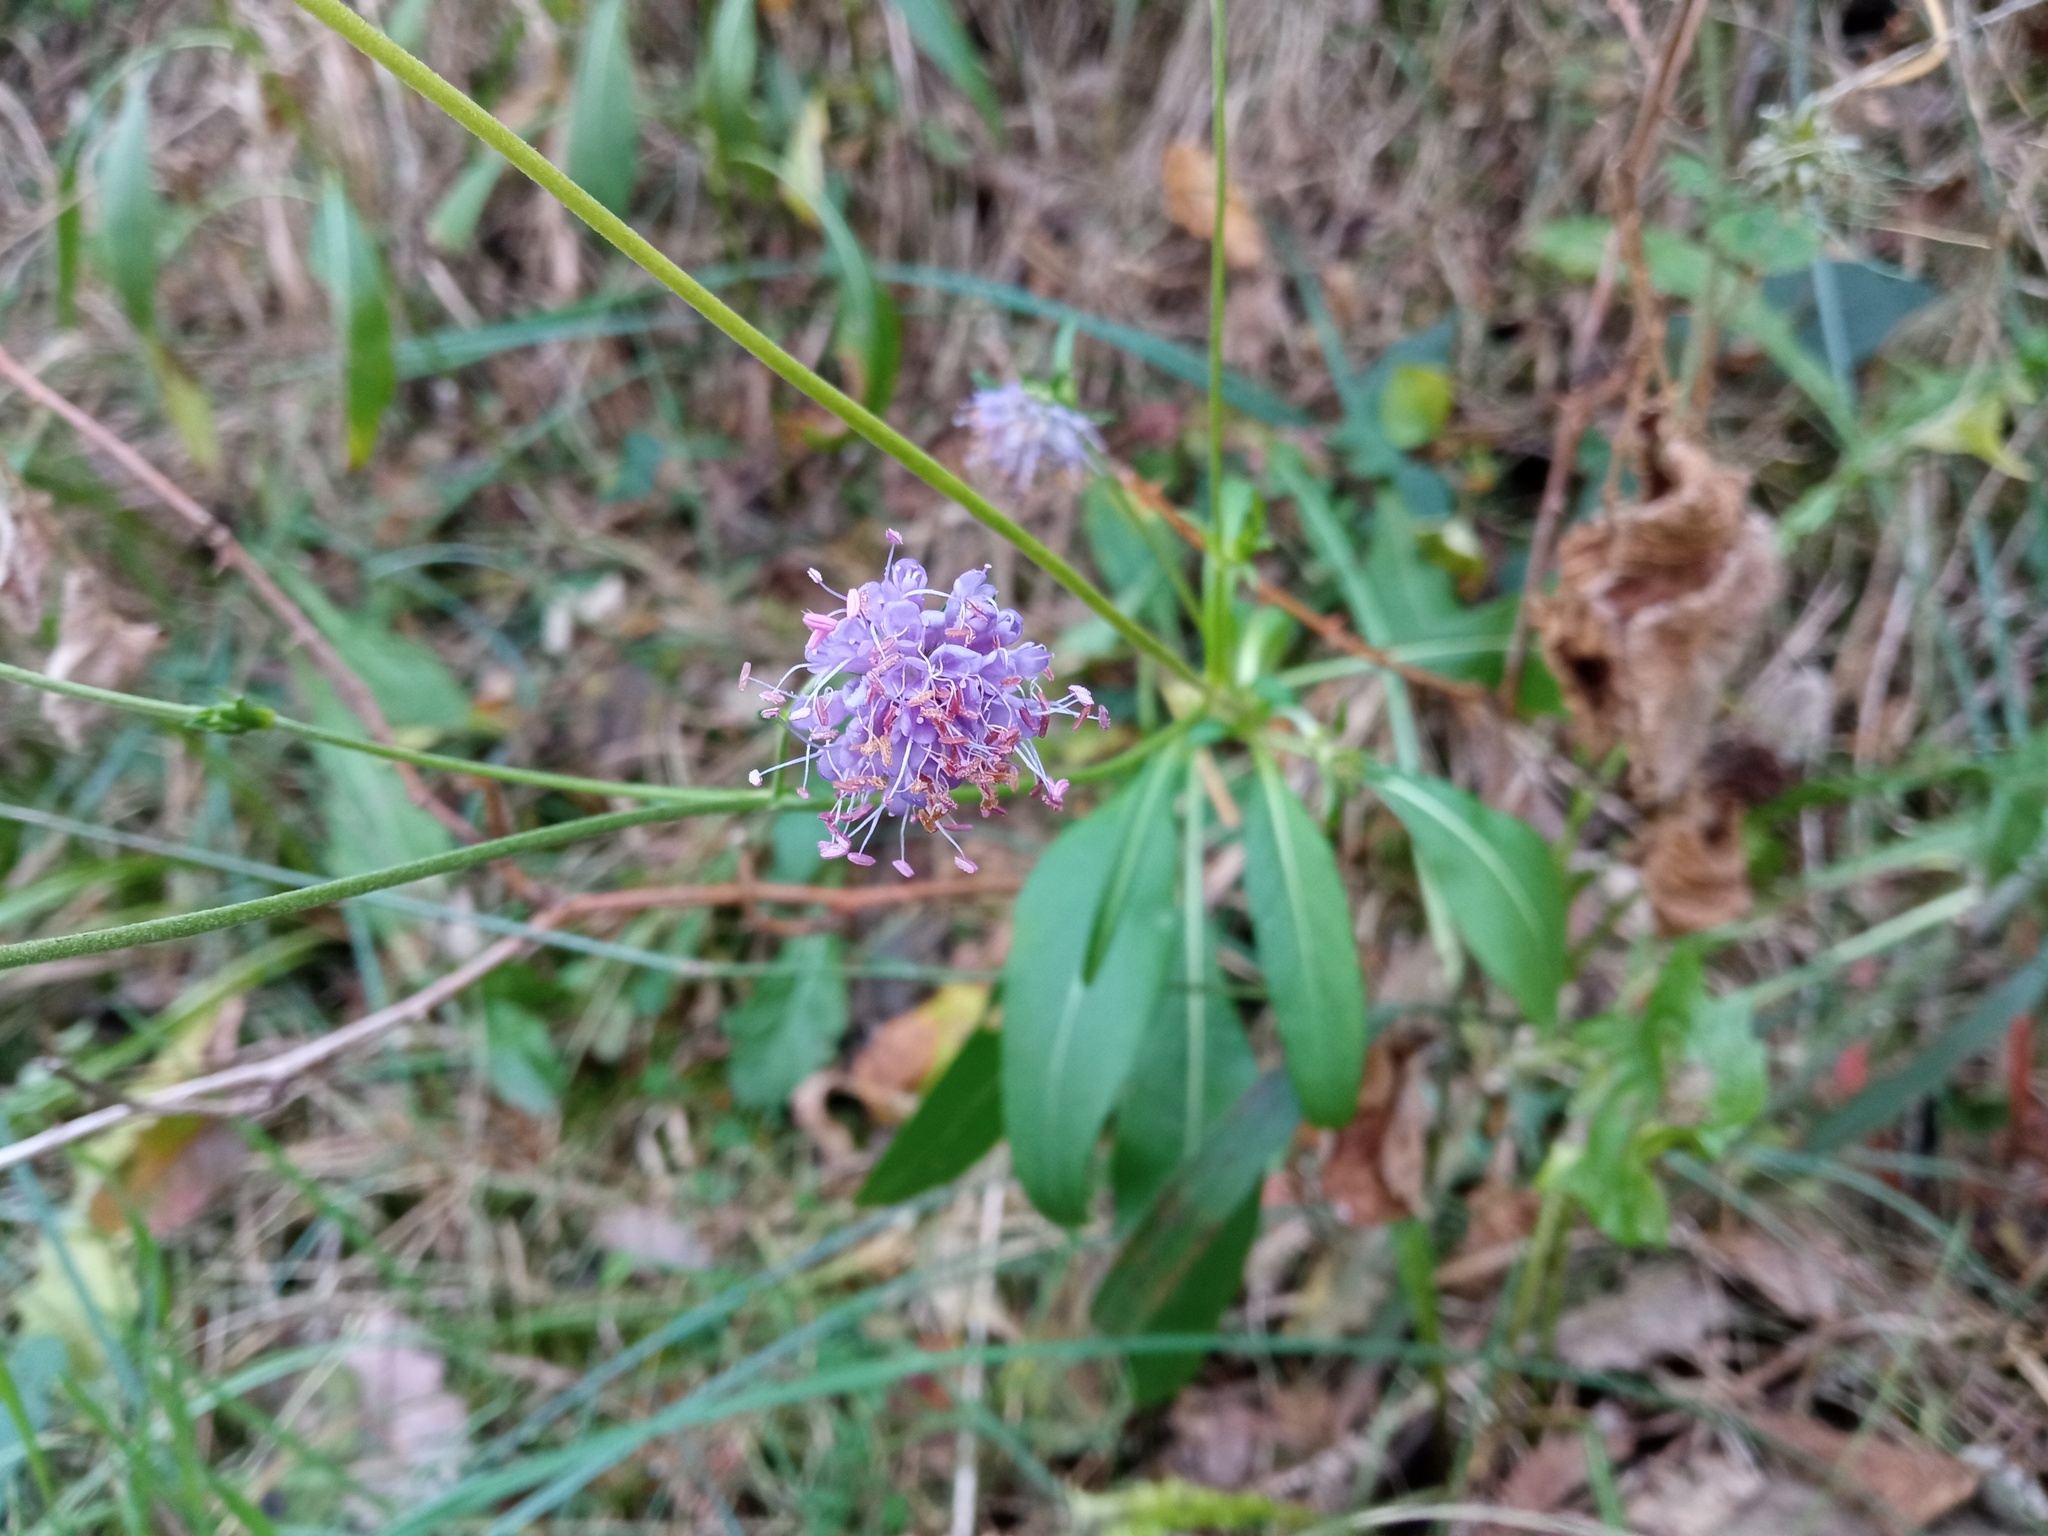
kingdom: Plantae
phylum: Tracheophyta
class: Magnoliopsida
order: Dipsacales
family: Caprifoliaceae
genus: Succisa
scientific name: Succisa pratensis
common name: Devil's-bit
